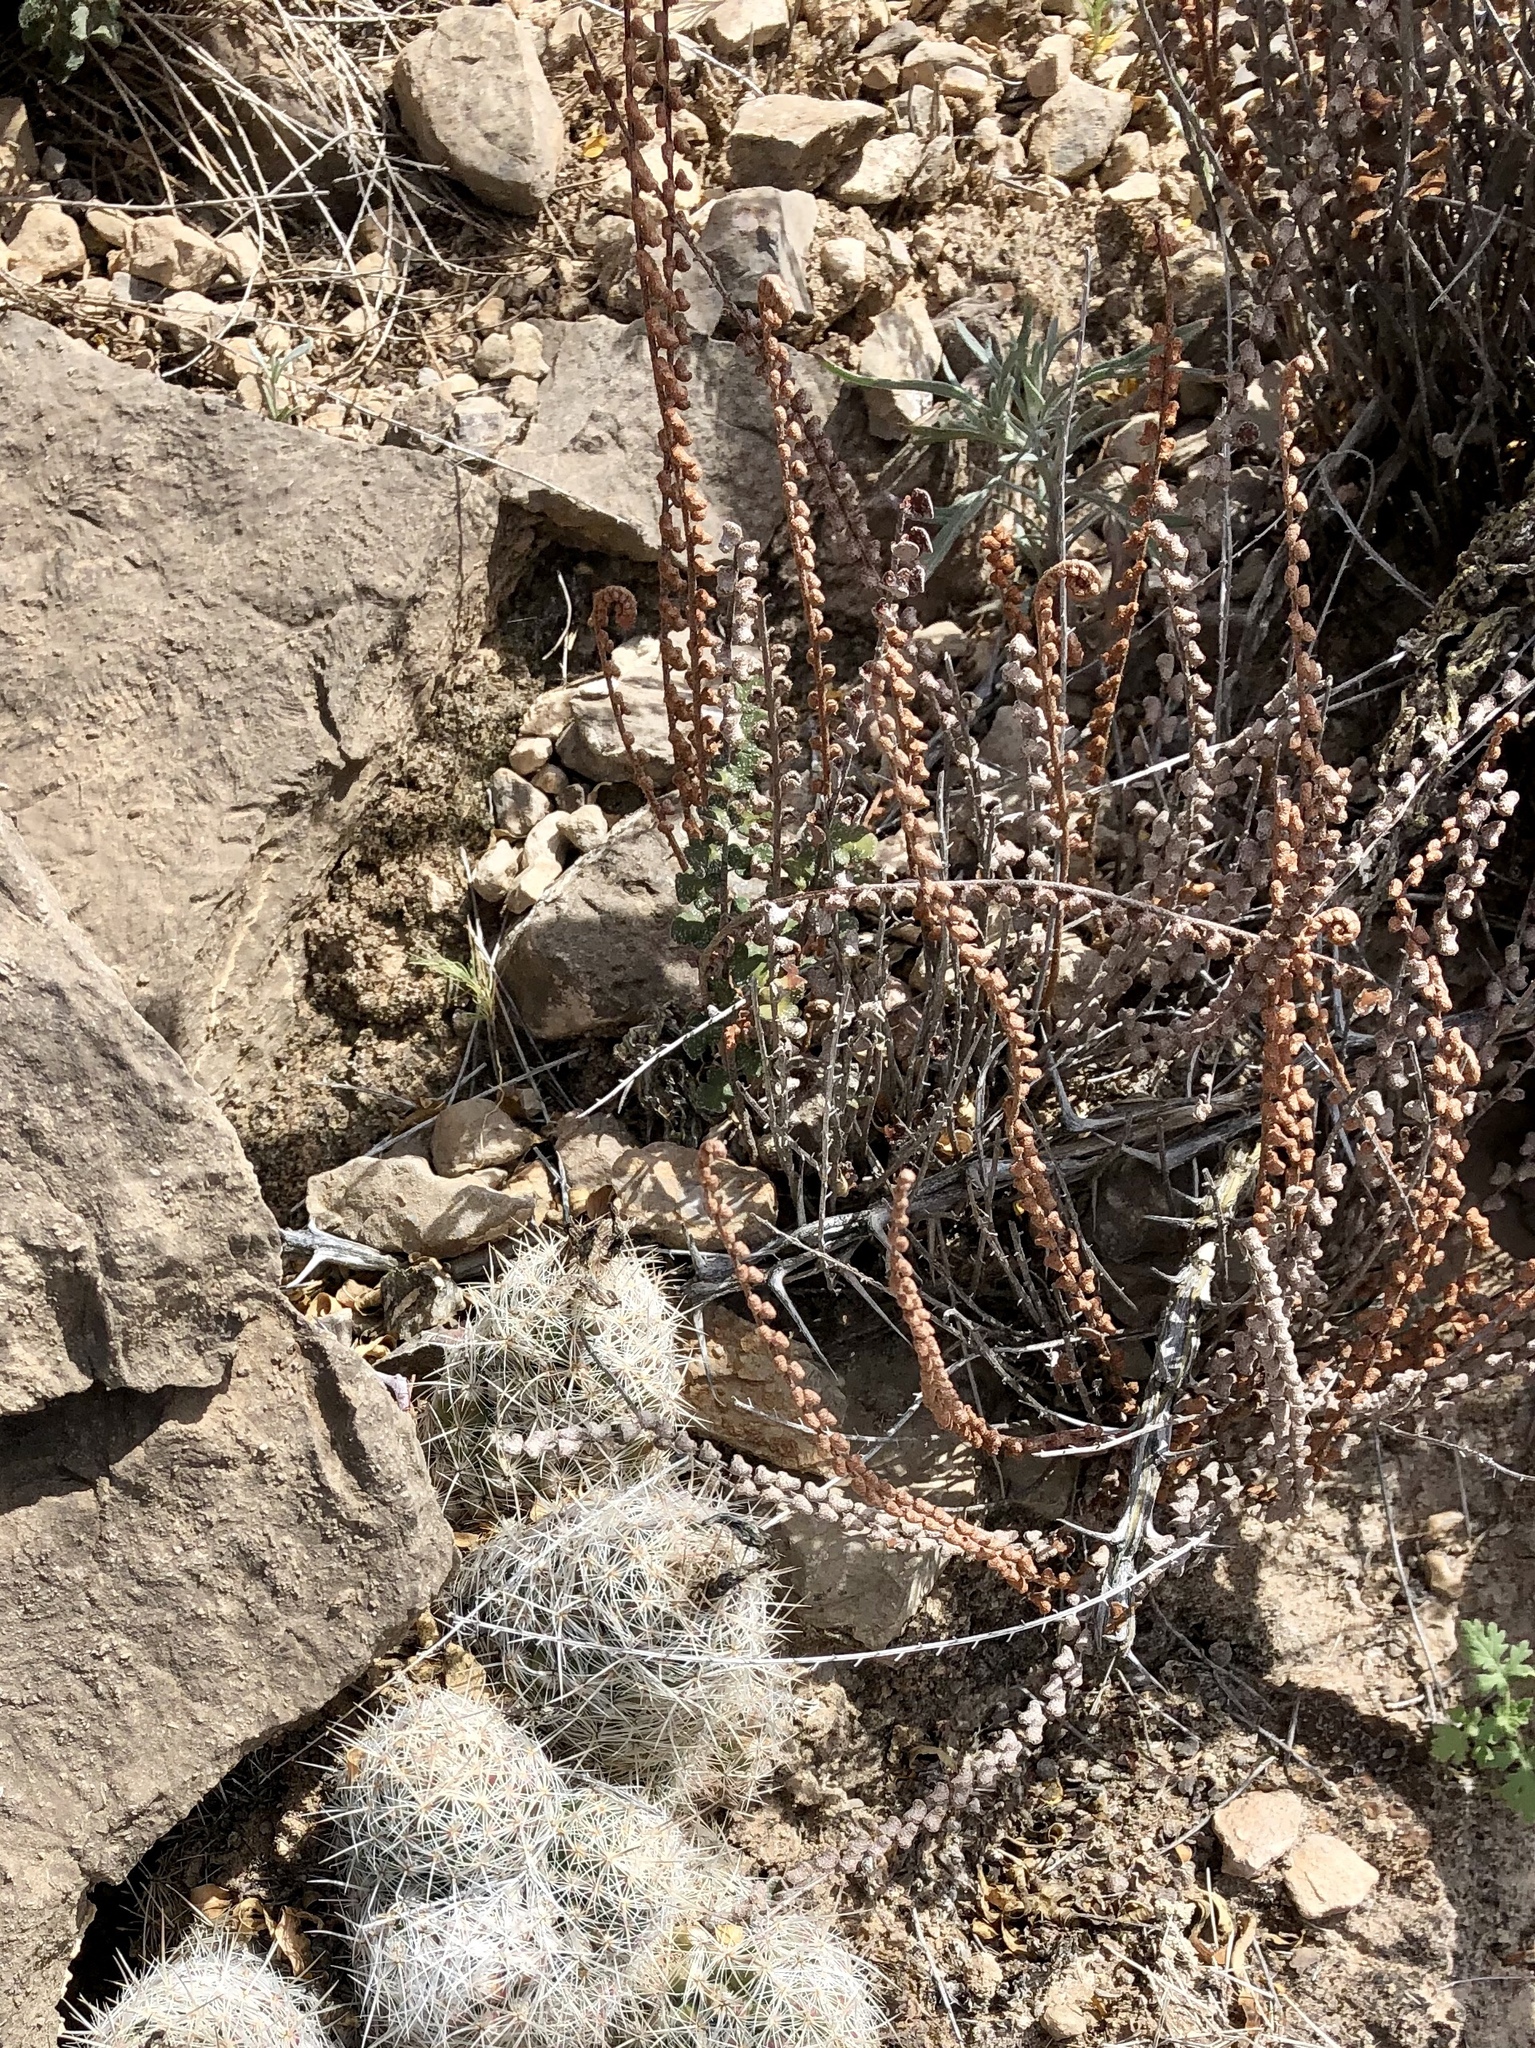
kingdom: Plantae
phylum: Tracheophyta
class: Polypodiopsida
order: Polypodiales
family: Pteridaceae
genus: Astrolepis
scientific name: Astrolepis cochisensis
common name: Scaly cloak fern
